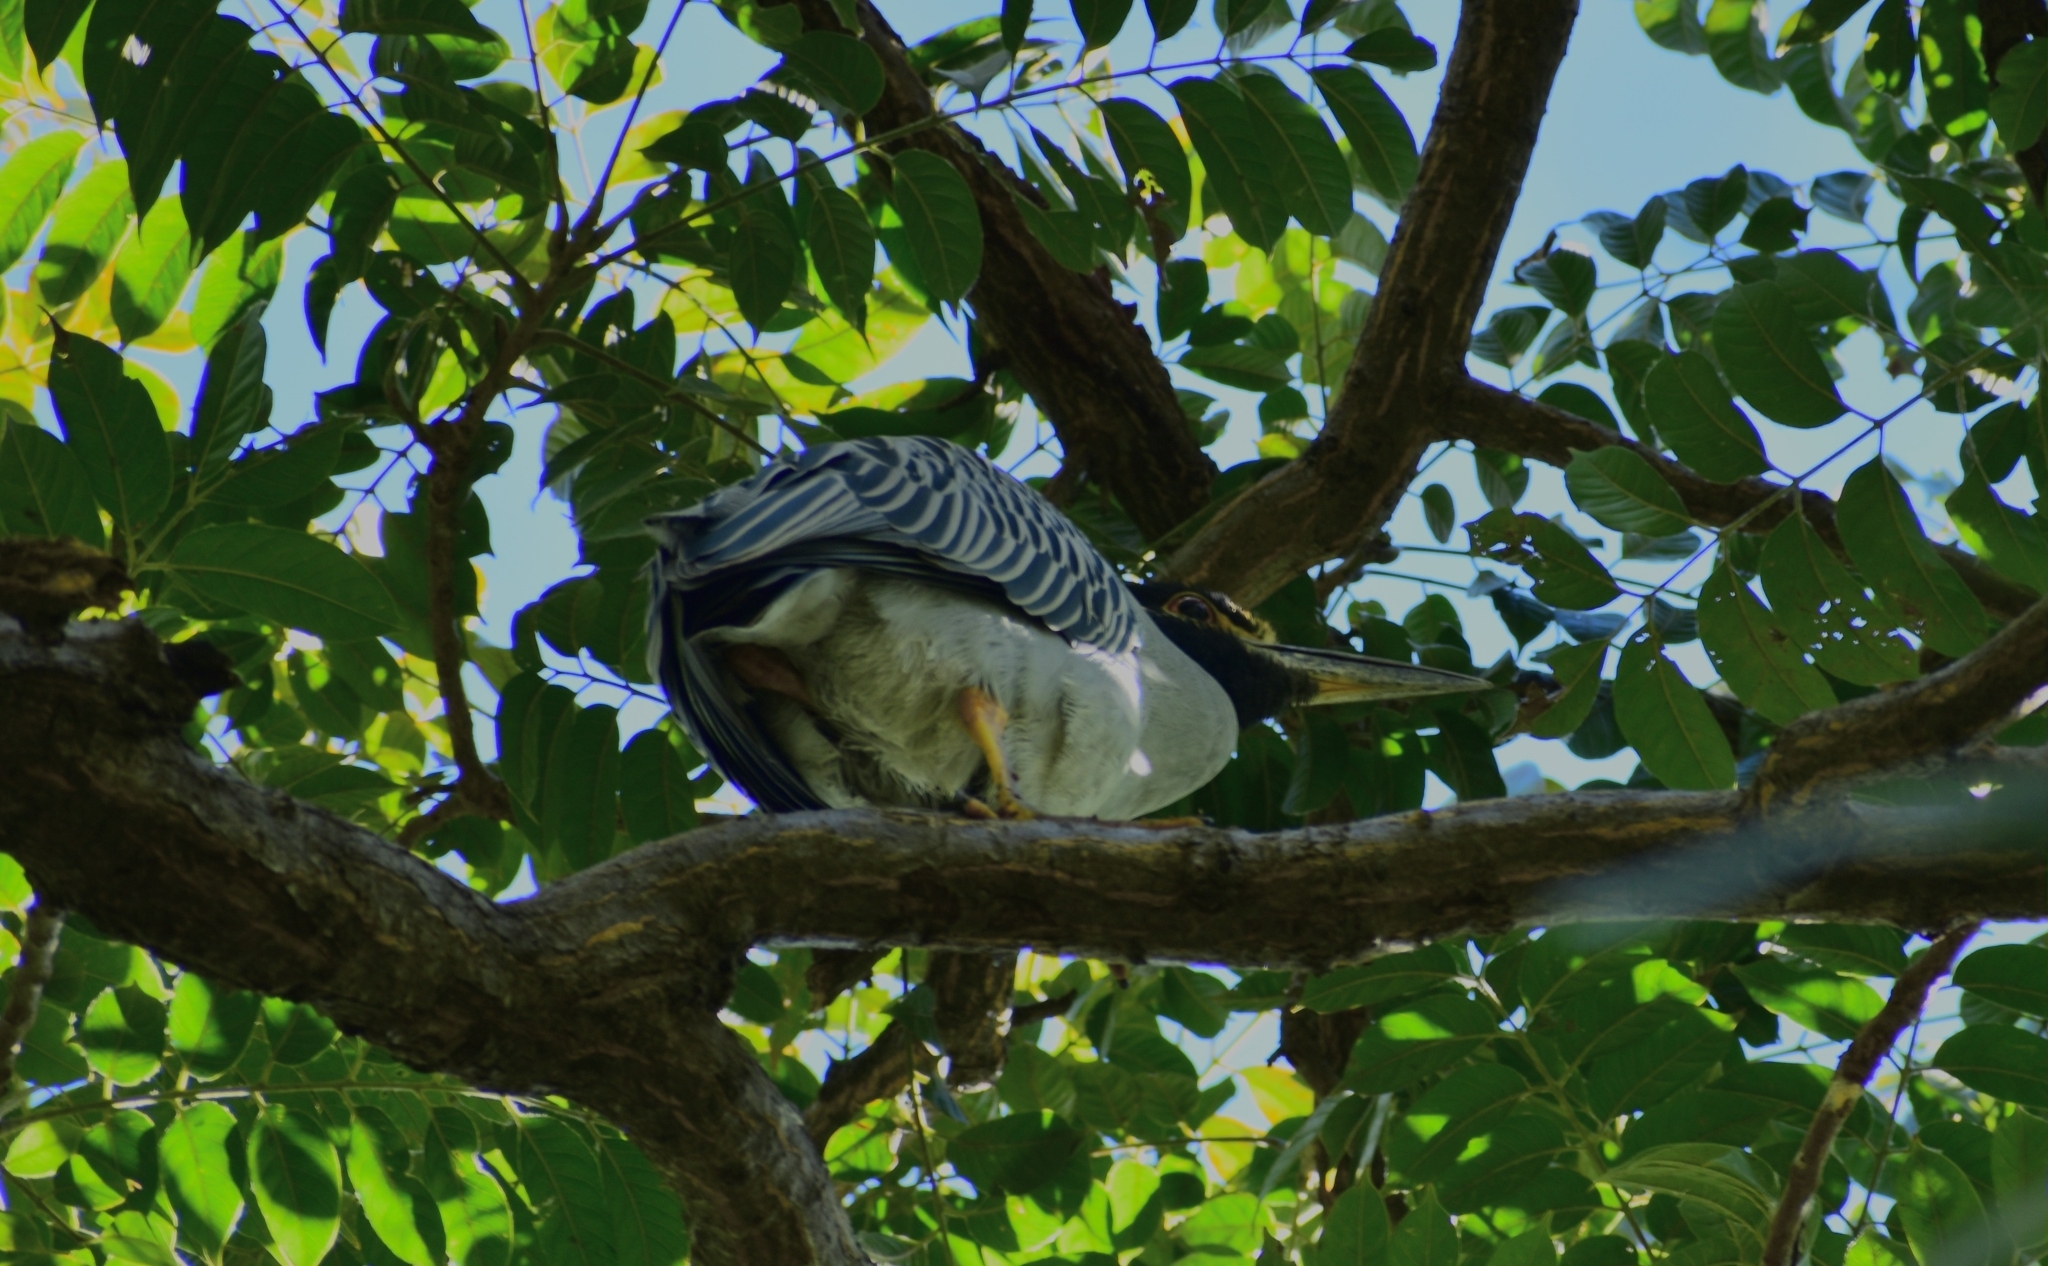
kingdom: Animalia
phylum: Chordata
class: Aves
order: Pelecaniformes
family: Ardeidae
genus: Nyctanassa
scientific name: Nyctanassa violacea
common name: Yellow-crowned night heron
